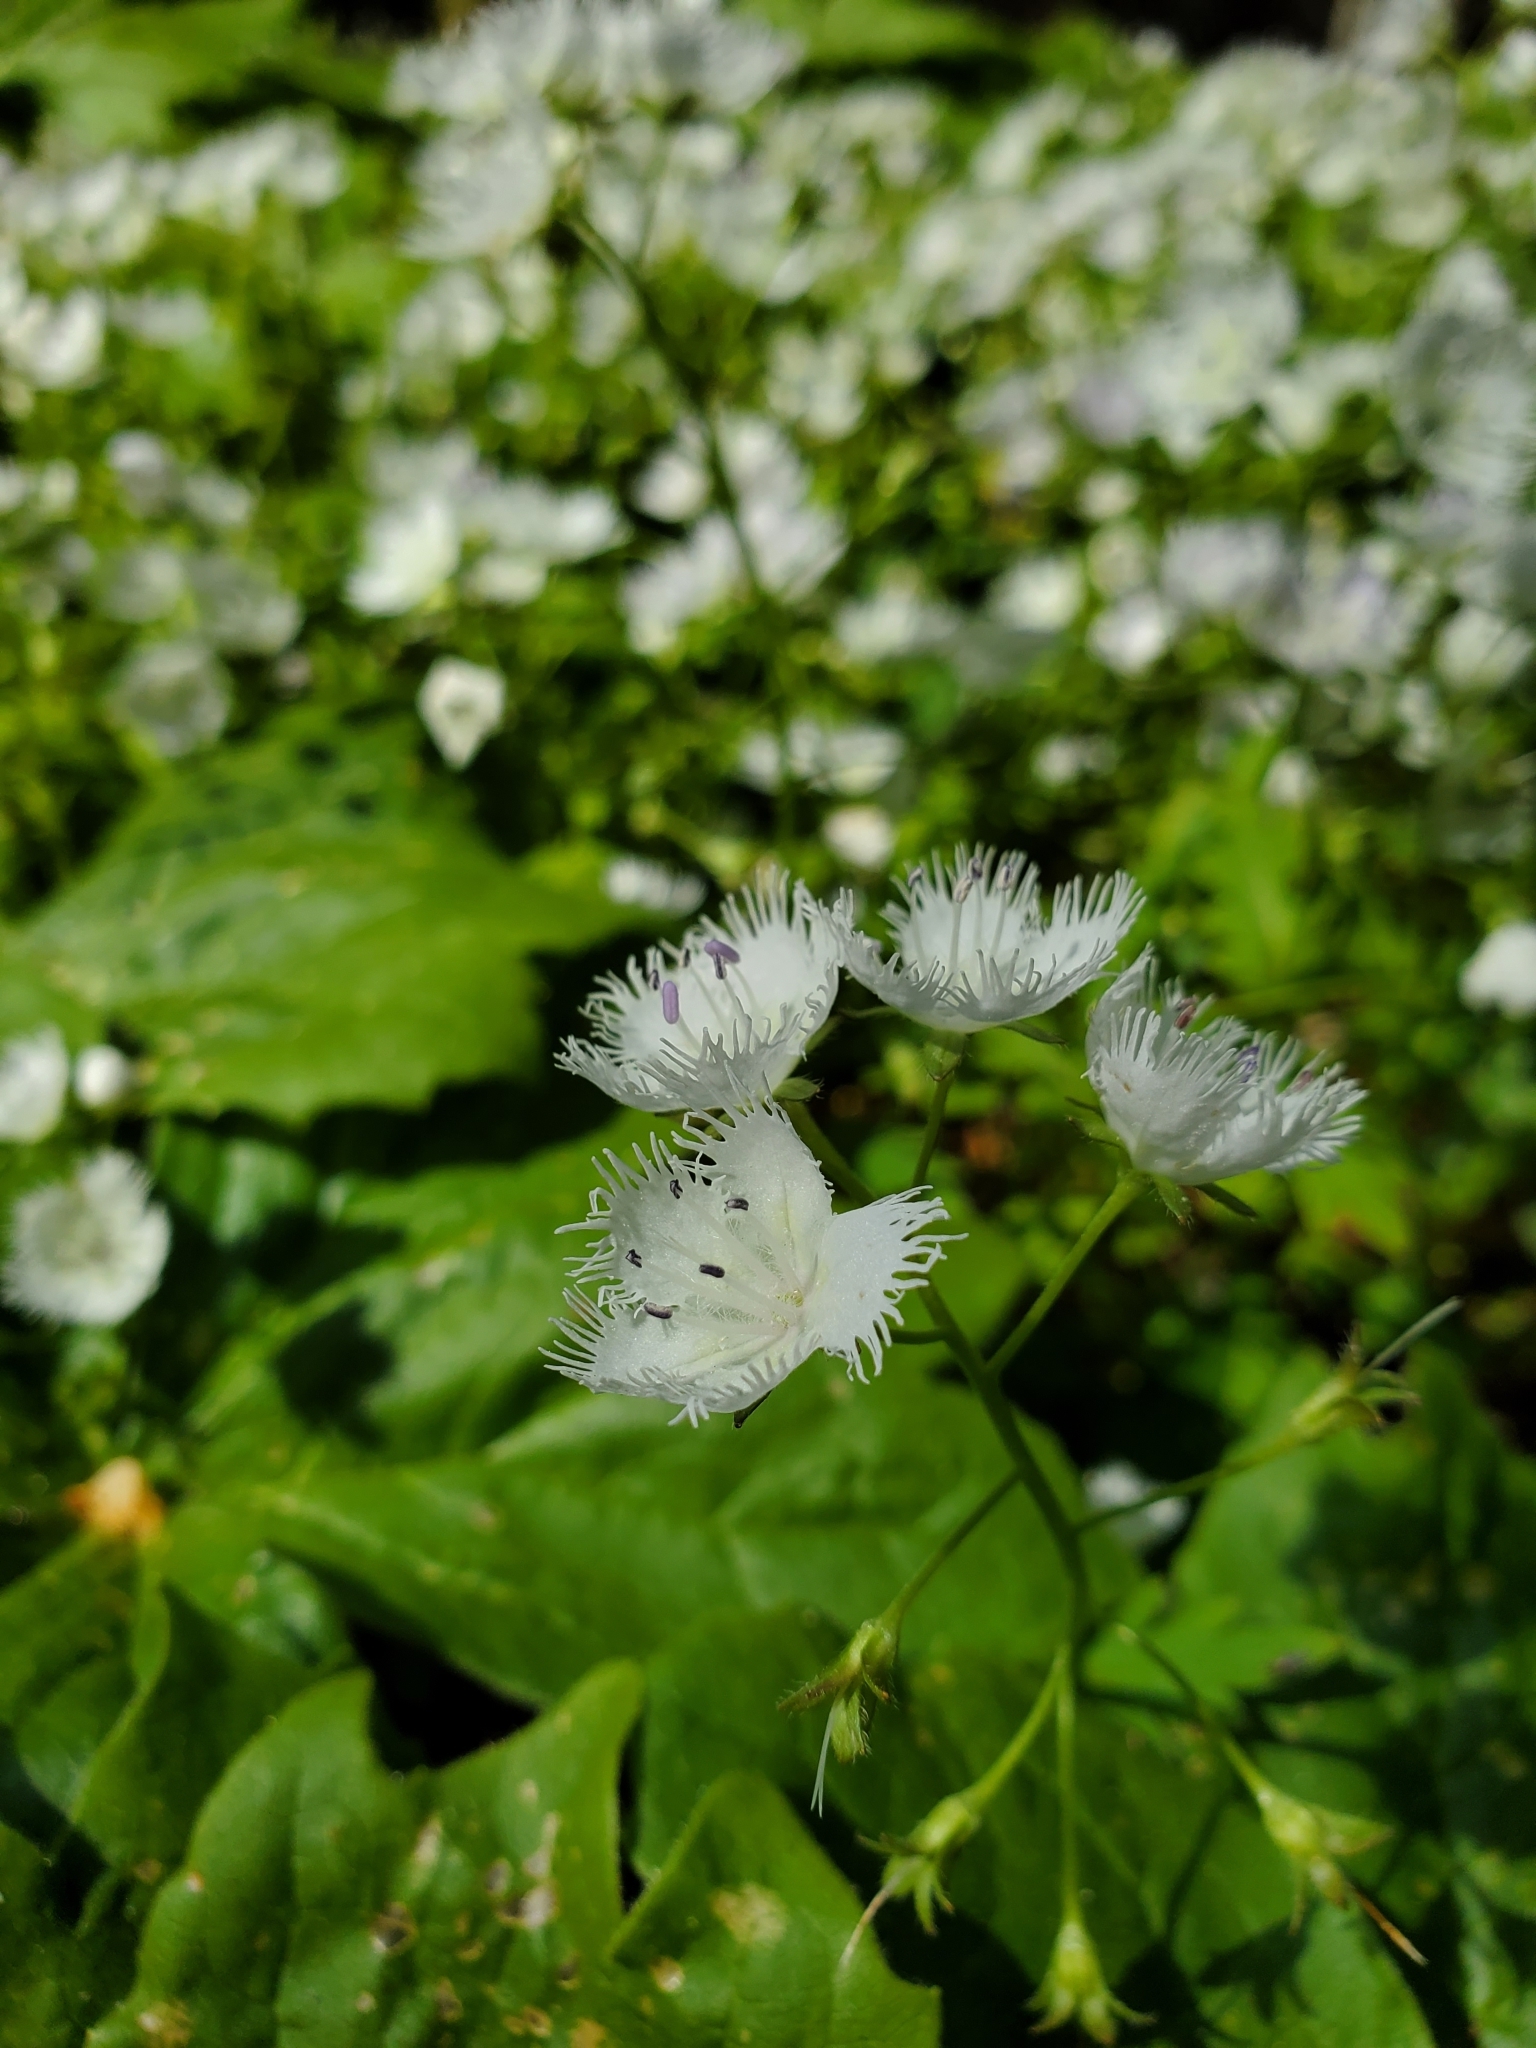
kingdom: Plantae
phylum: Tracheophyta
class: Magnoliopsida
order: Boraginales
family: Hydrophyllaceae
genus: Phacelia
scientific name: Phacelia fimbriata
